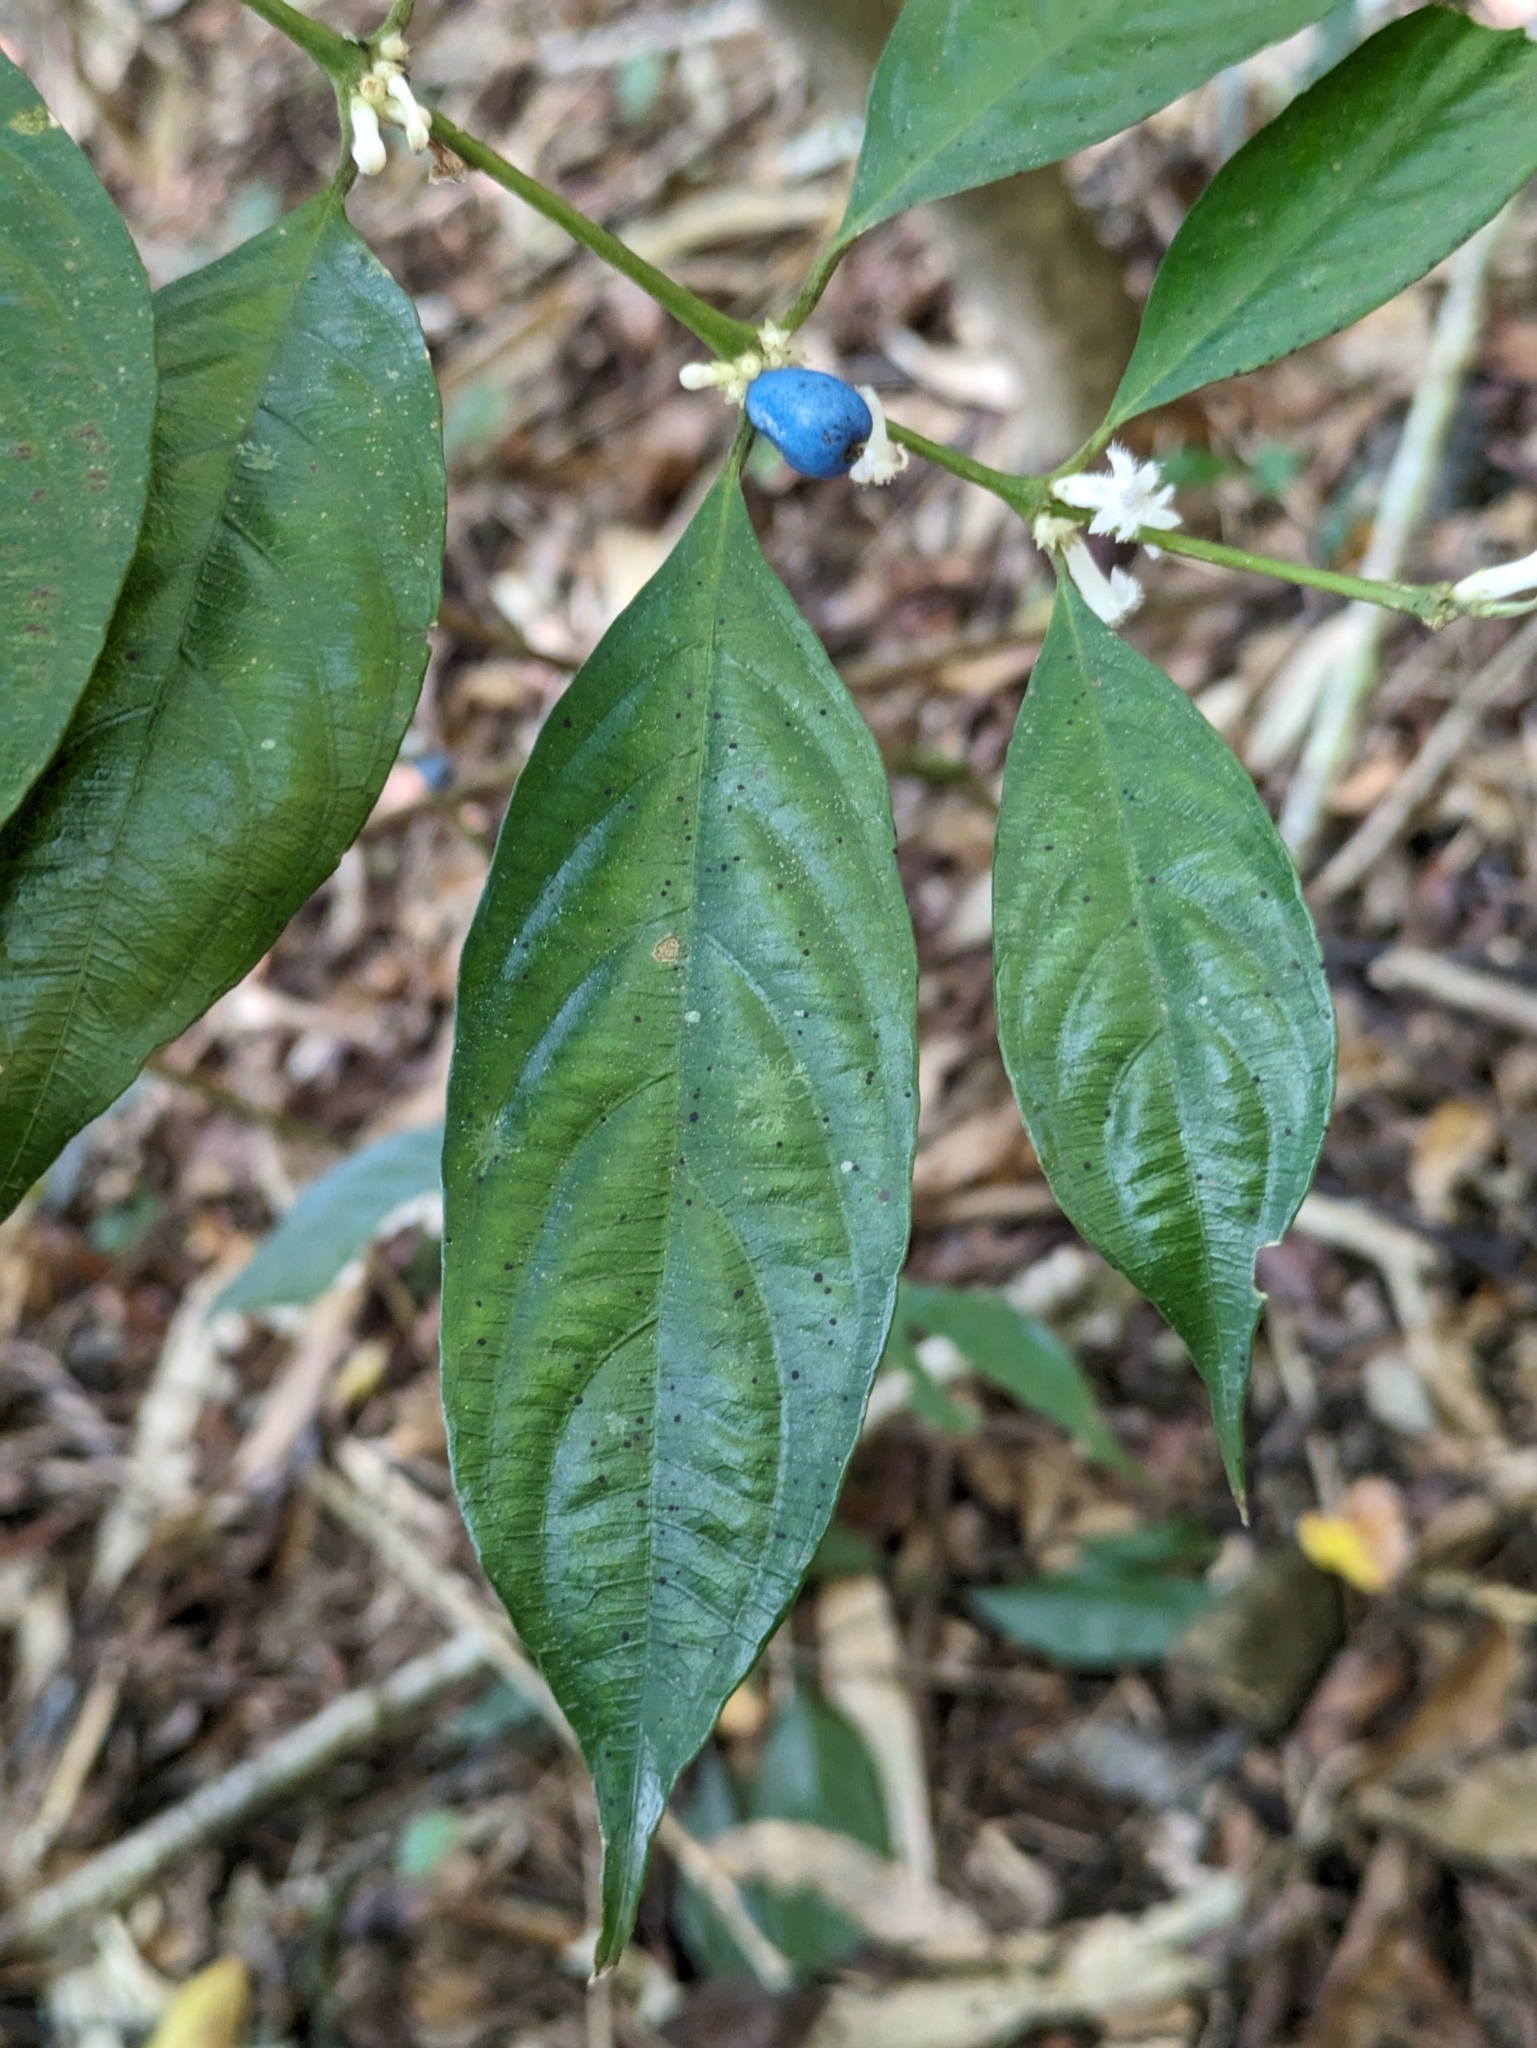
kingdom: Plantae
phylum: Tracheophyta
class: Magnoliopsida
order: Gentianales
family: Rubiaceae
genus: Lasianthus
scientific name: Lasianthus fordii
